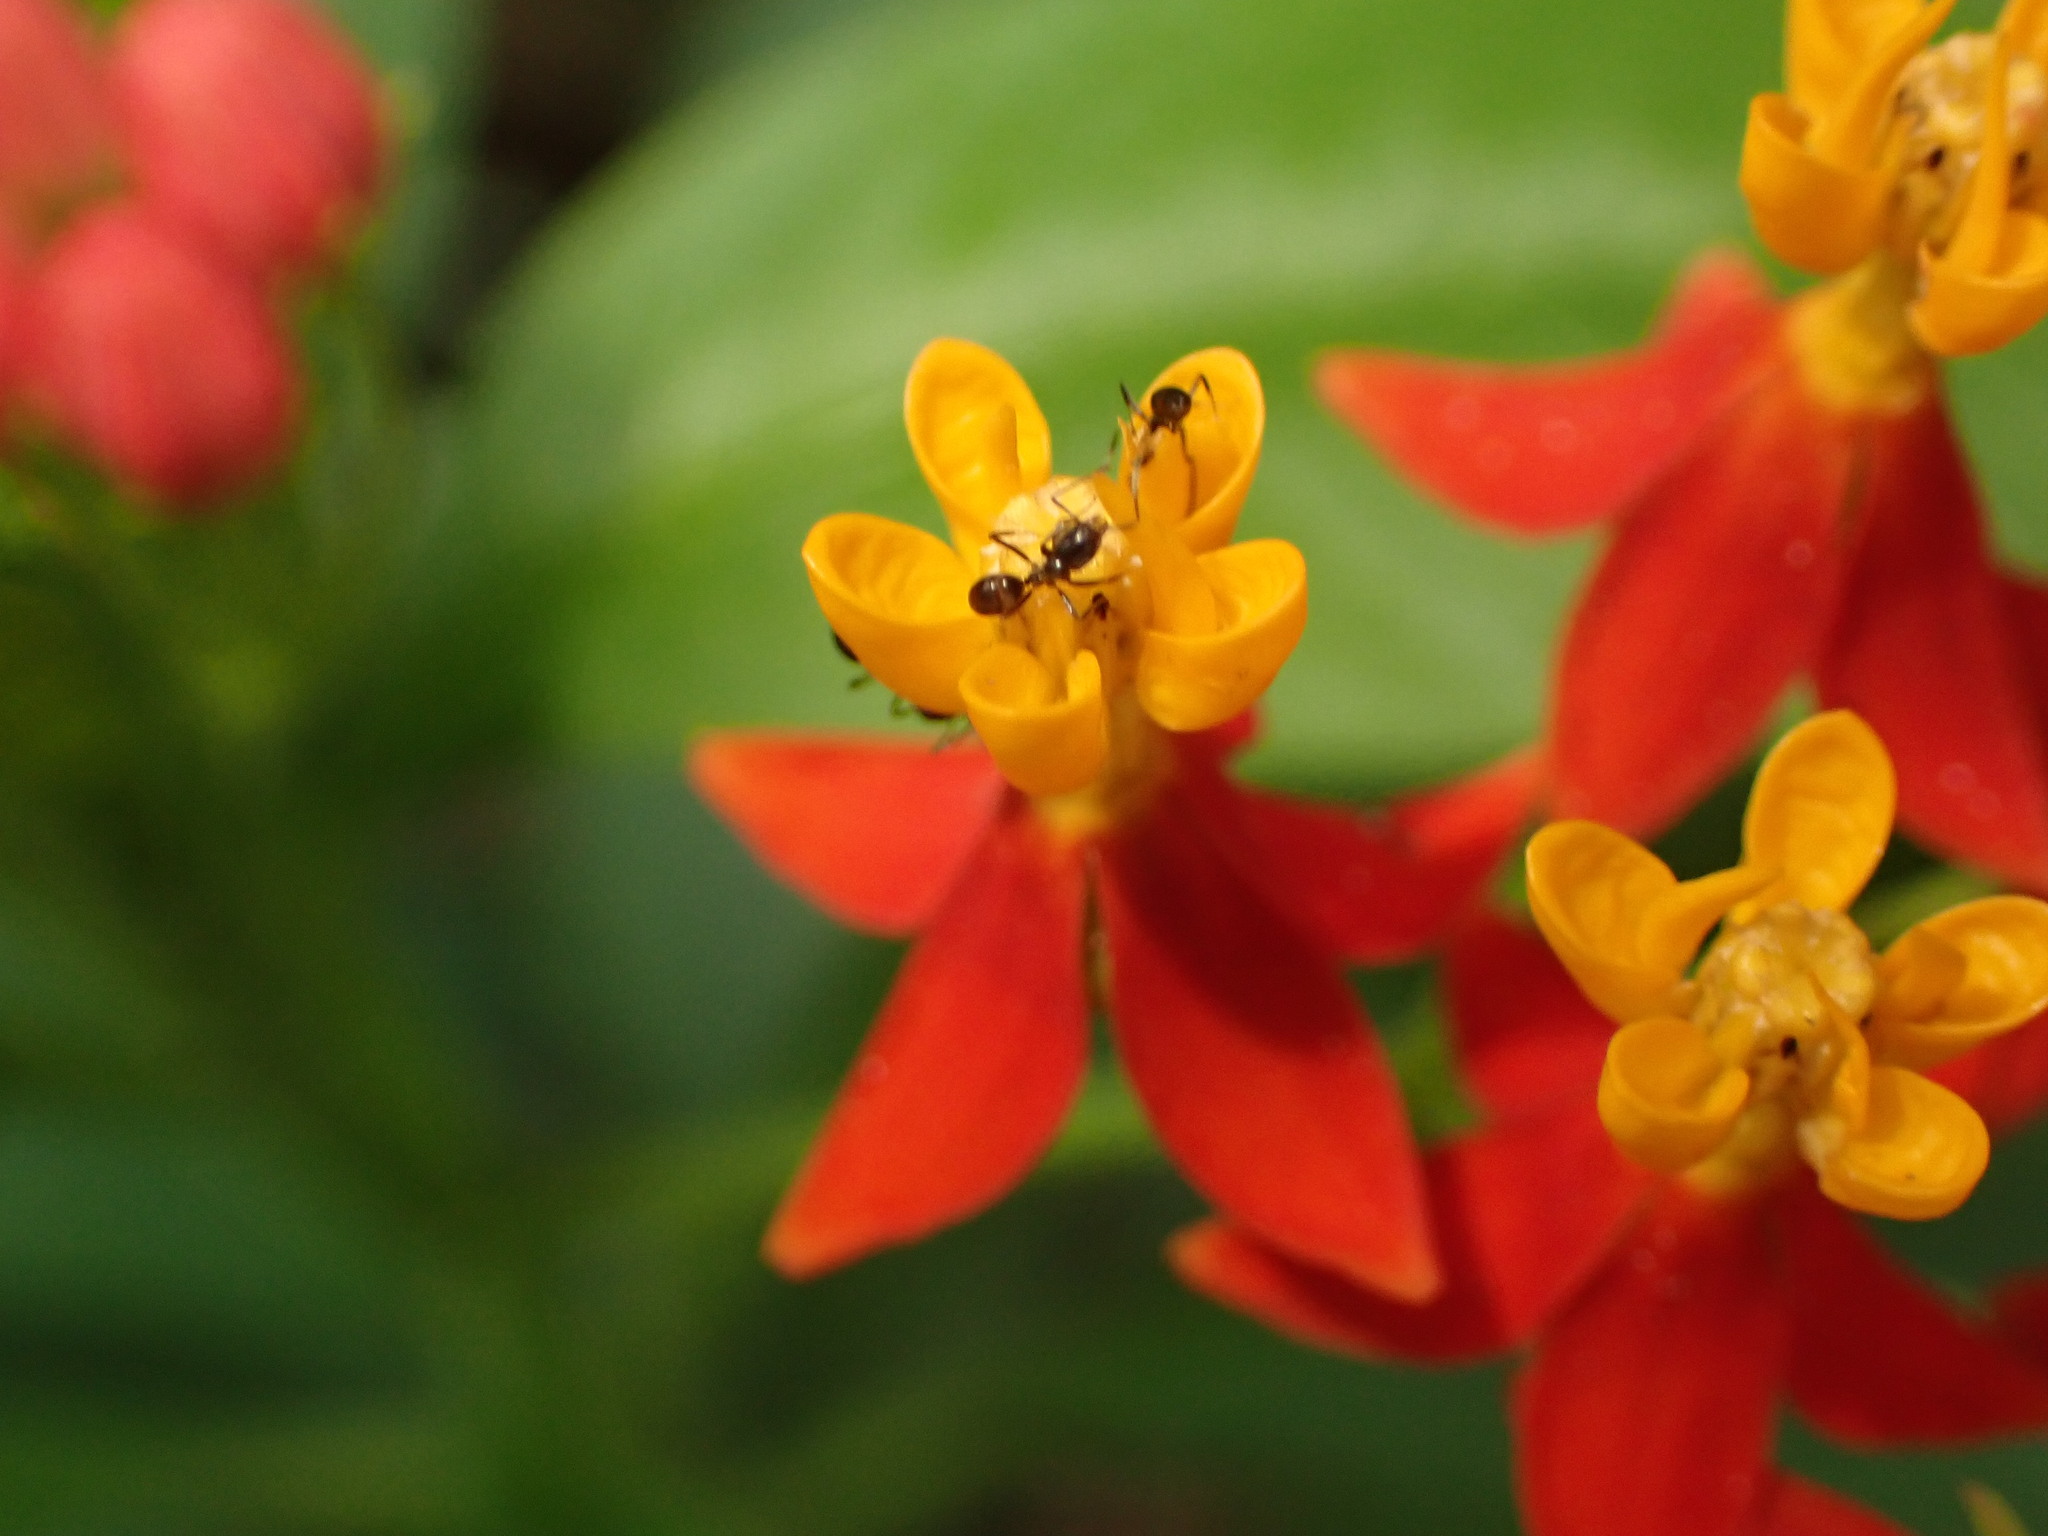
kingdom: Plantae
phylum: Tracheophyta
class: Magnoliopsida
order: Gentianales
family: Apocynaceae
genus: Asclepias
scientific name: Asclepias curassavica
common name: Bloodflower
